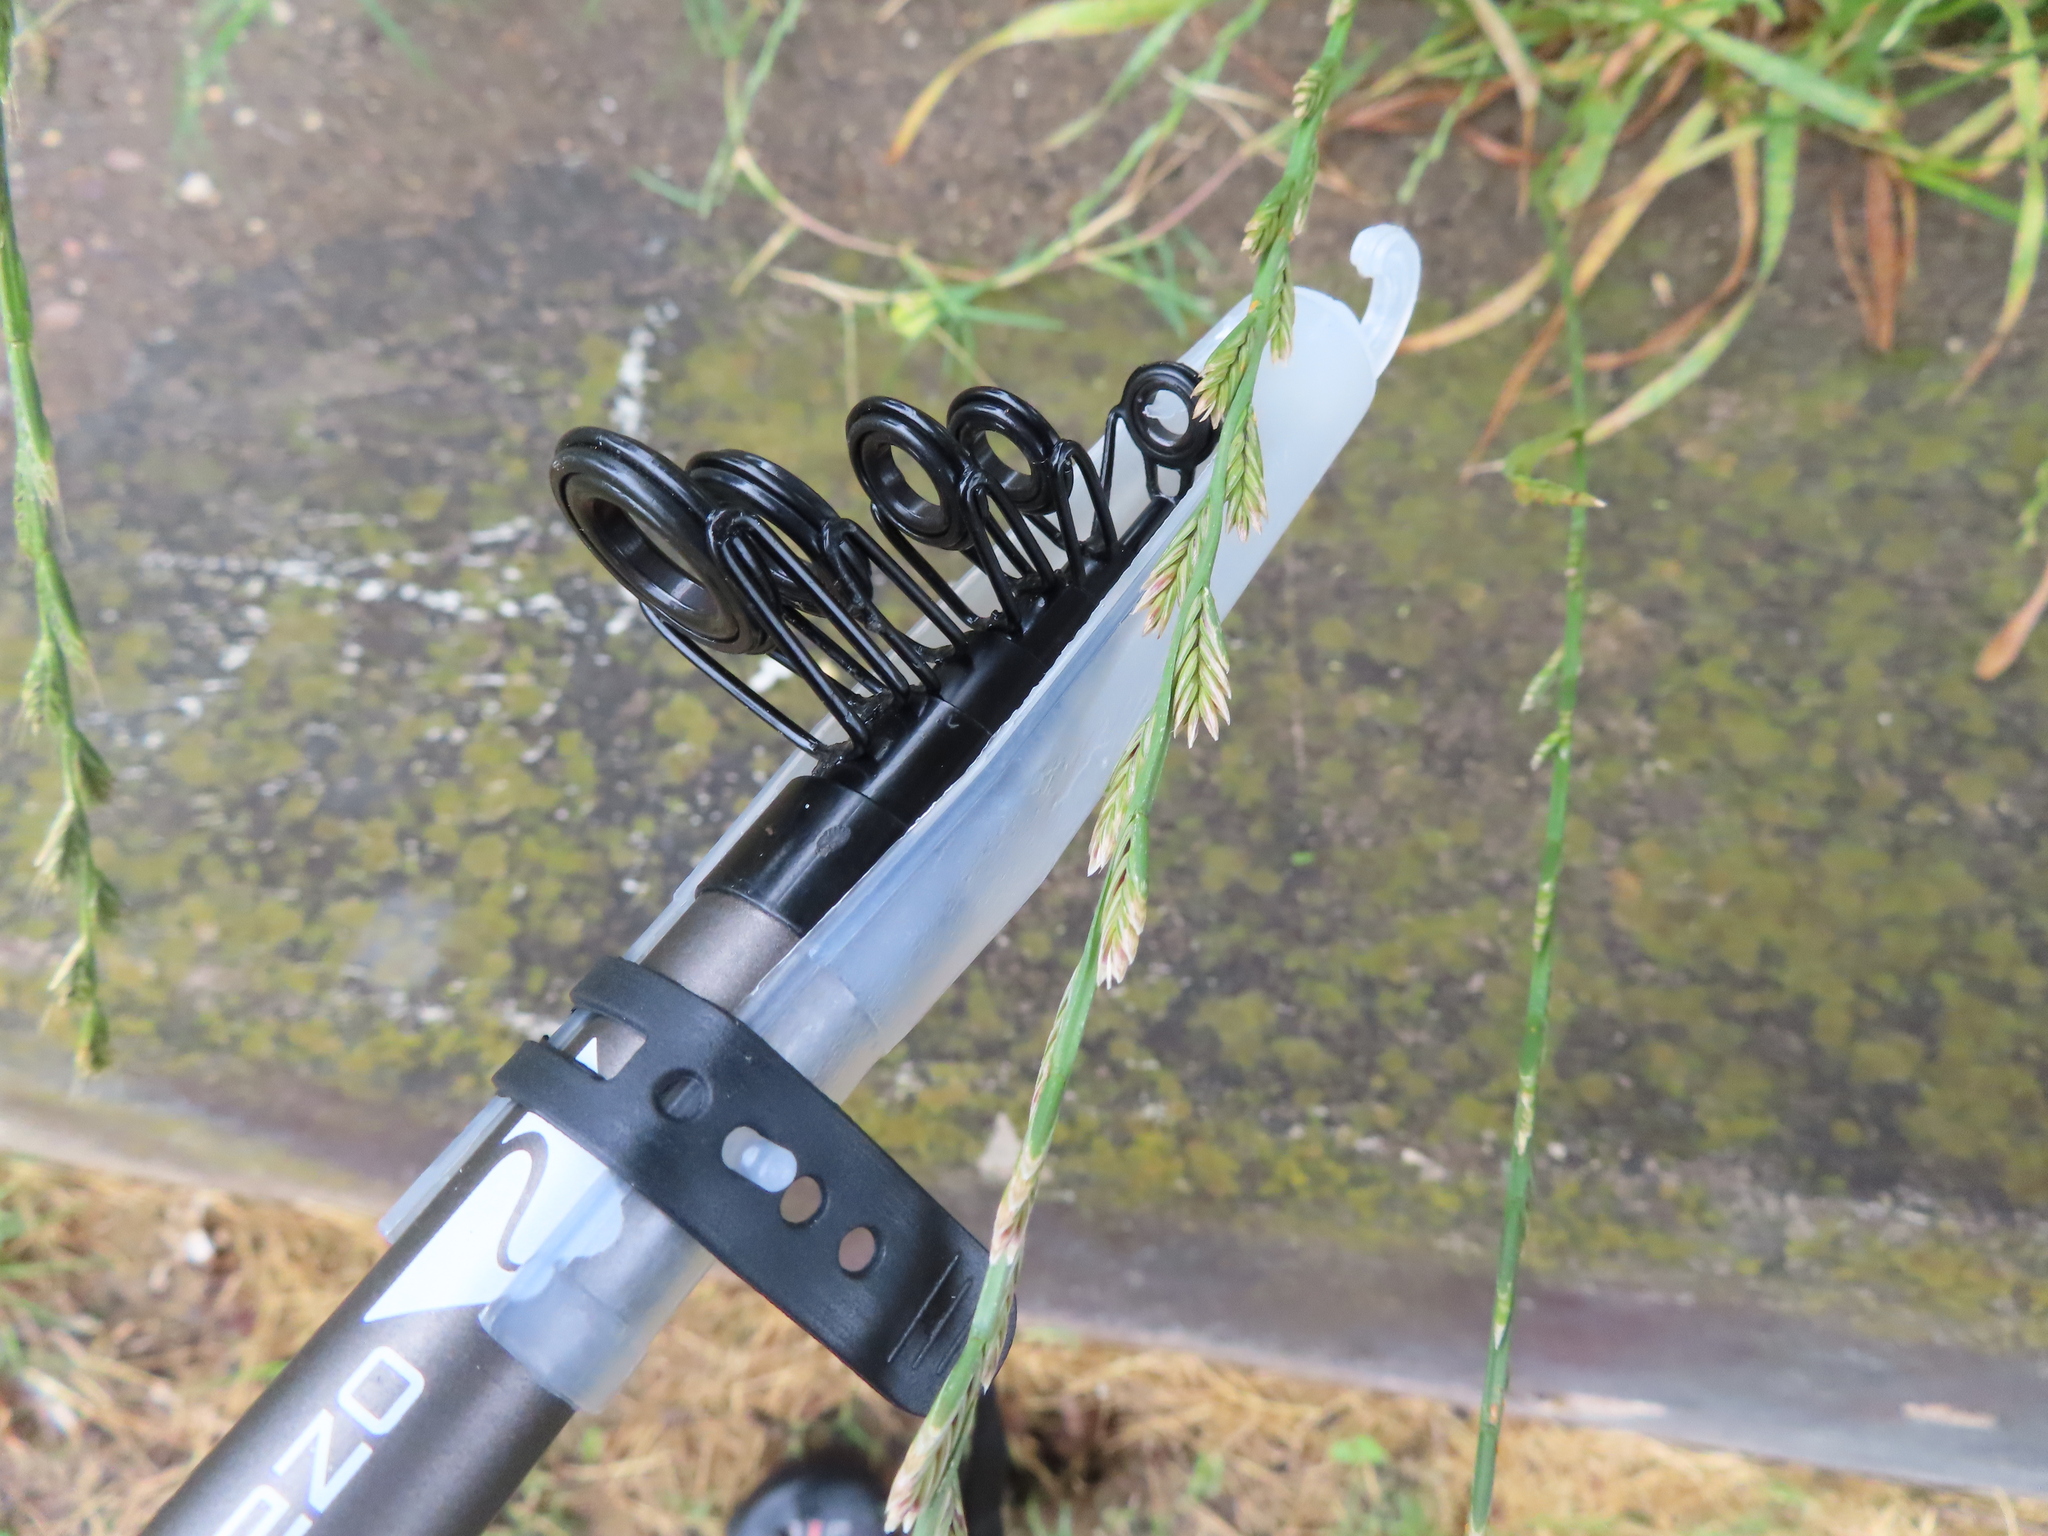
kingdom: Plantae
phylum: Tracheophyta
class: Liliopsida
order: Poales
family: Poaceae
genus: Lolium
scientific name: Lolium perenne
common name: Perennial ryegrass
